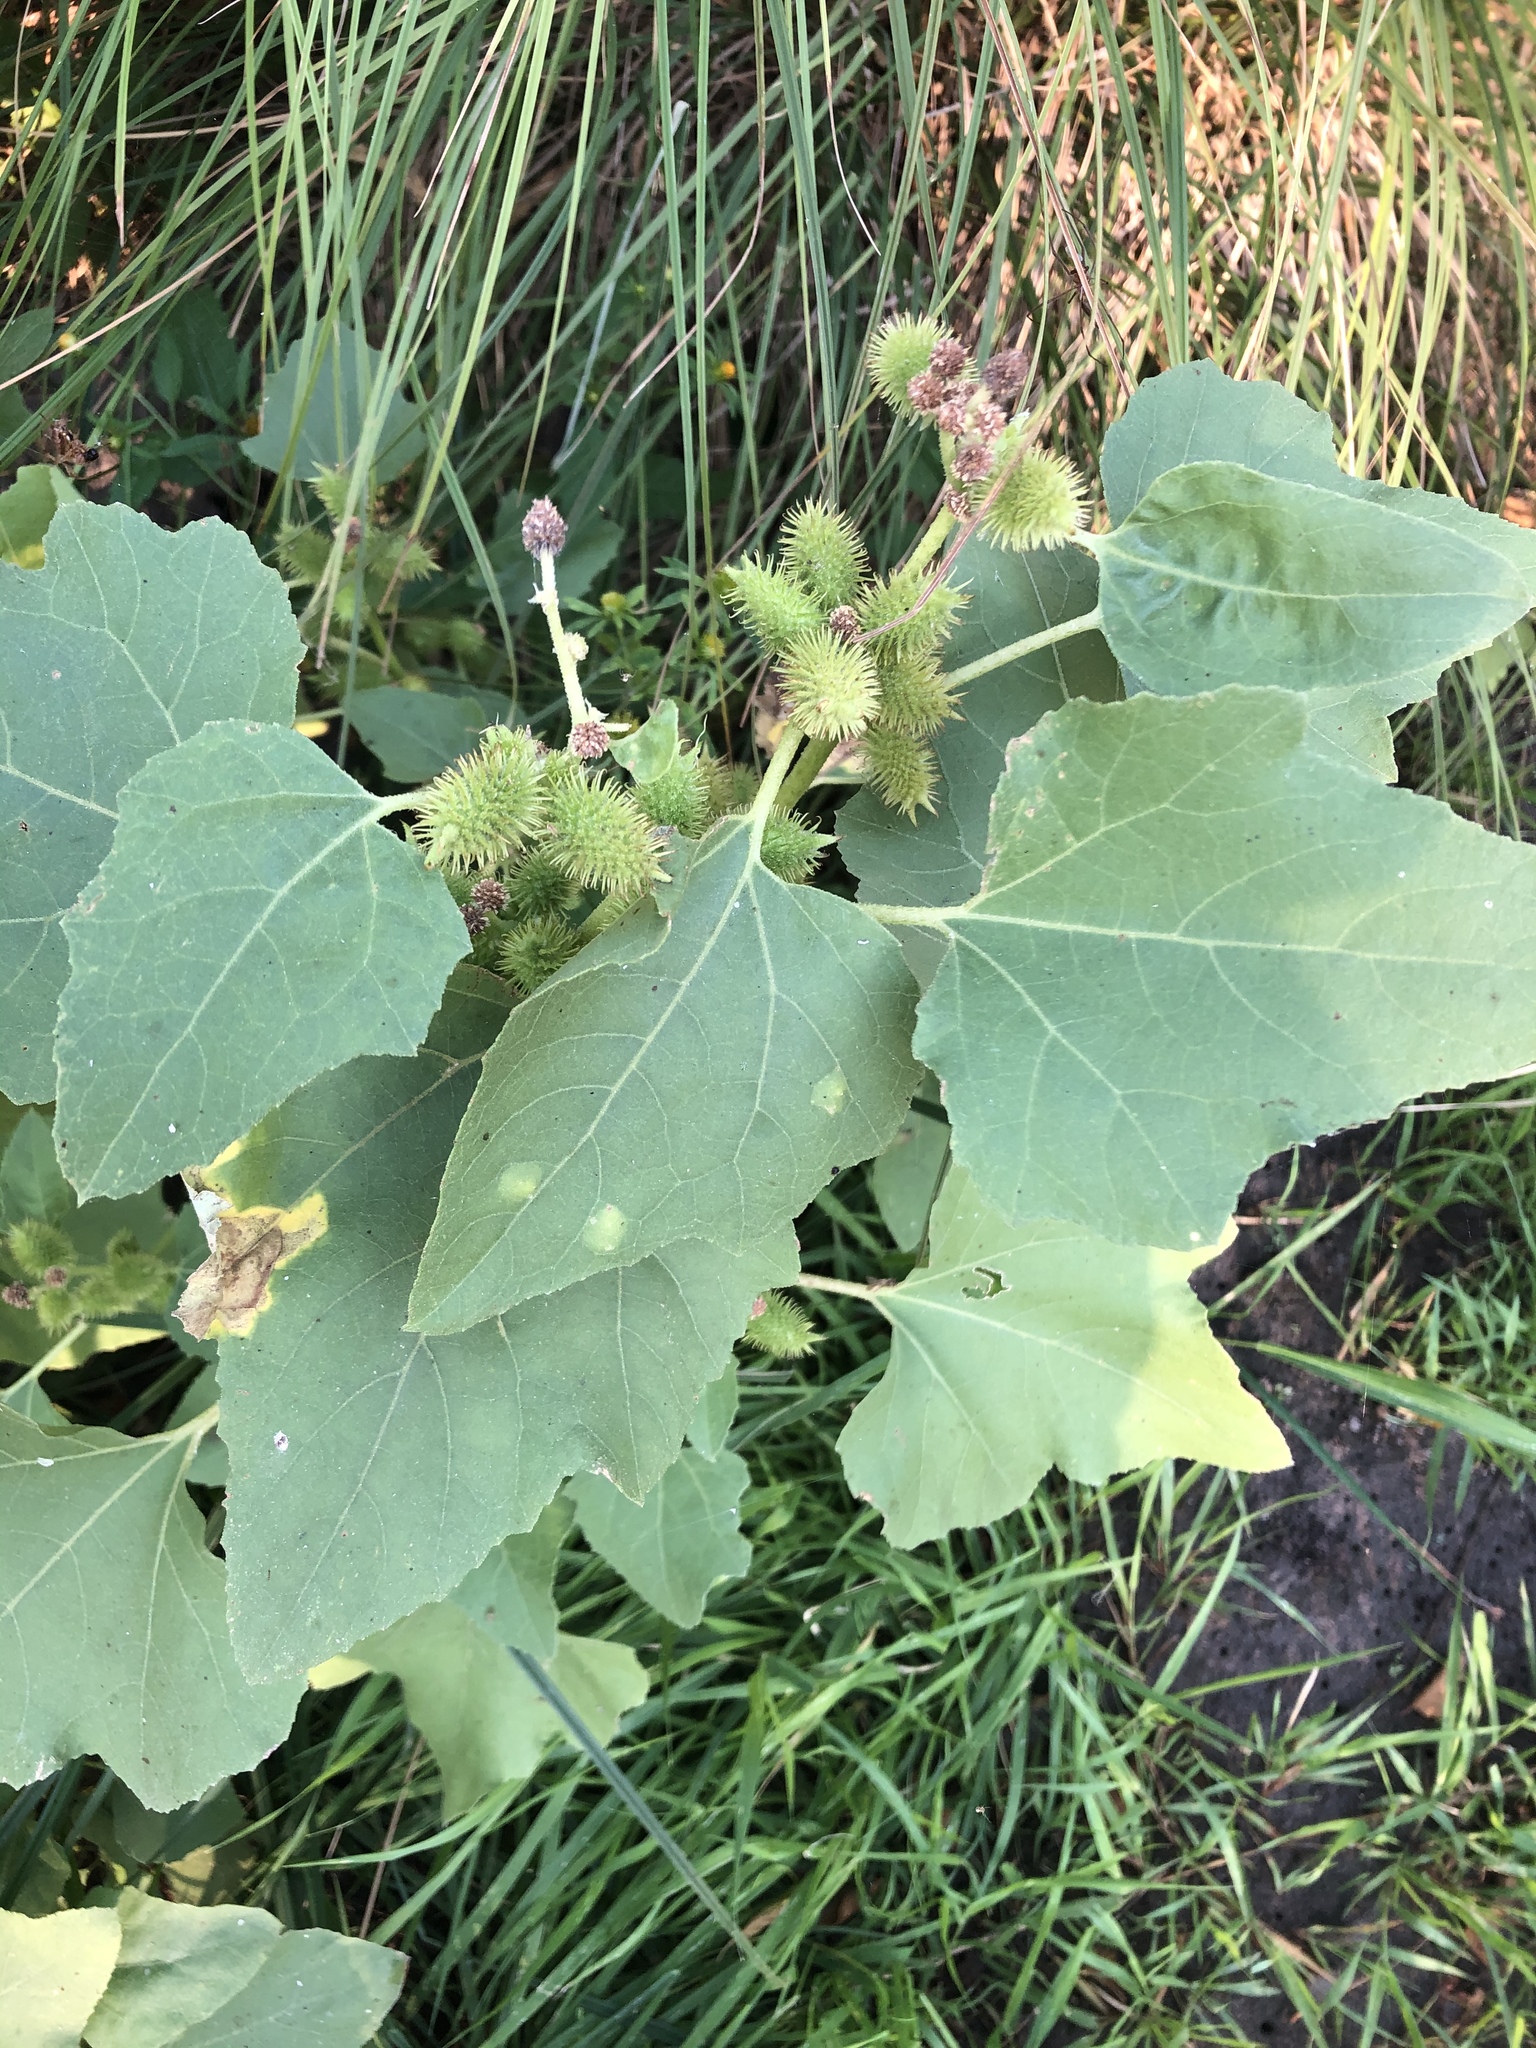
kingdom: Plantae
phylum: Tracheophyta
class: Magnoliopsida
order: Asterales
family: Asteraceae
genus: Xanthium
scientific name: Xanthium strumarium
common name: Rough cocklebur
